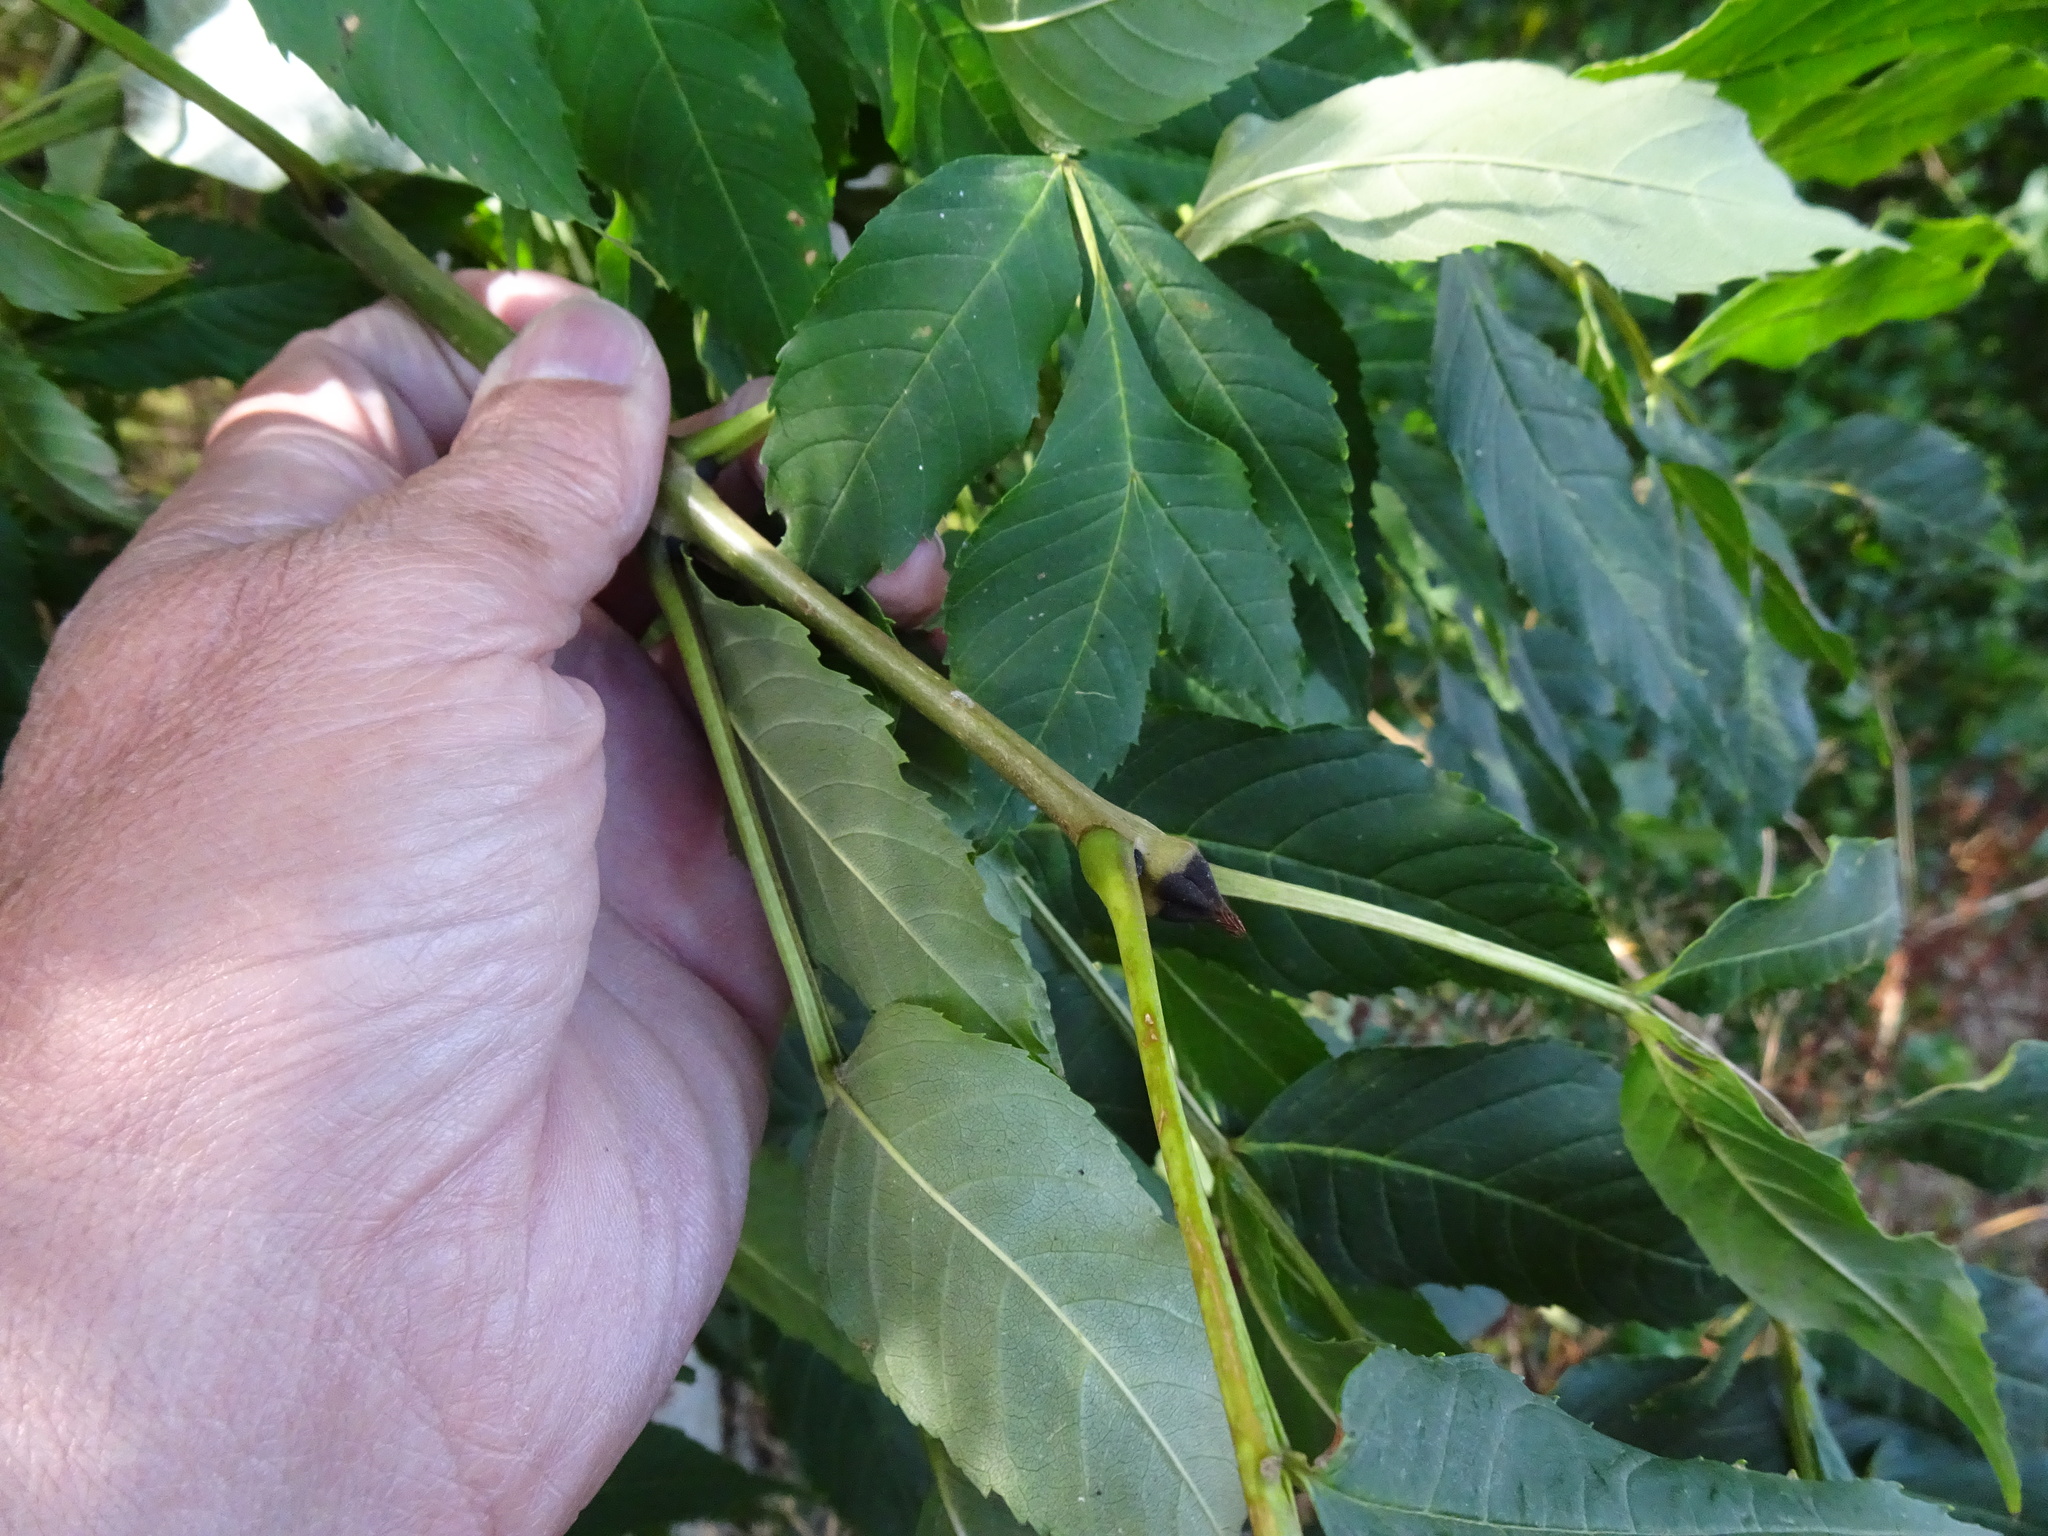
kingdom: Plantae
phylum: Tracheophyta
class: Magnoliopsida
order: Lamiales
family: Oleaceae
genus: Fraxinus
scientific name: Fraxinus excelsior
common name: European ash
